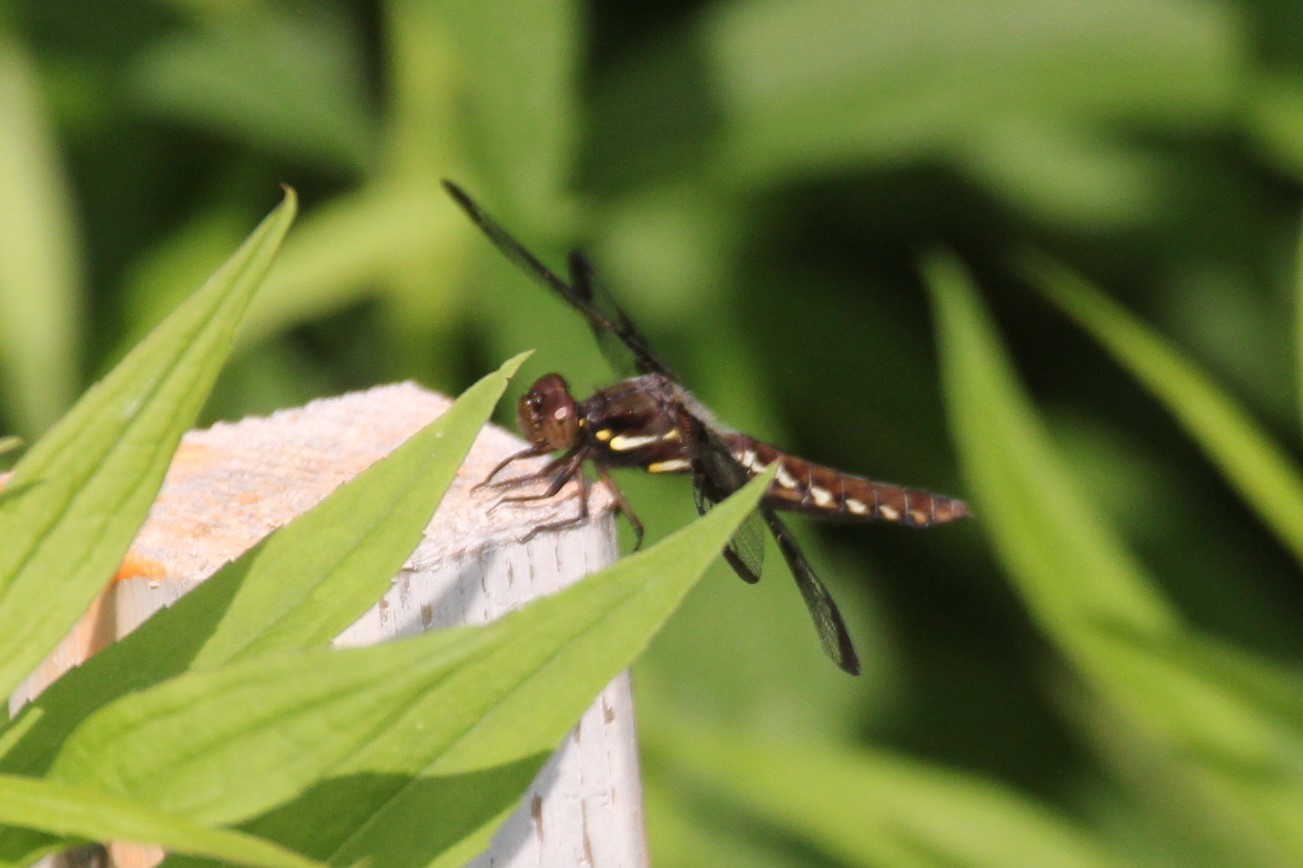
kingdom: Animalia
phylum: Arthropoda
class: Insecta
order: Odonata
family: Libellulidae
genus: Plathemis
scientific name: Plathemis lydia
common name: Common whitetail
